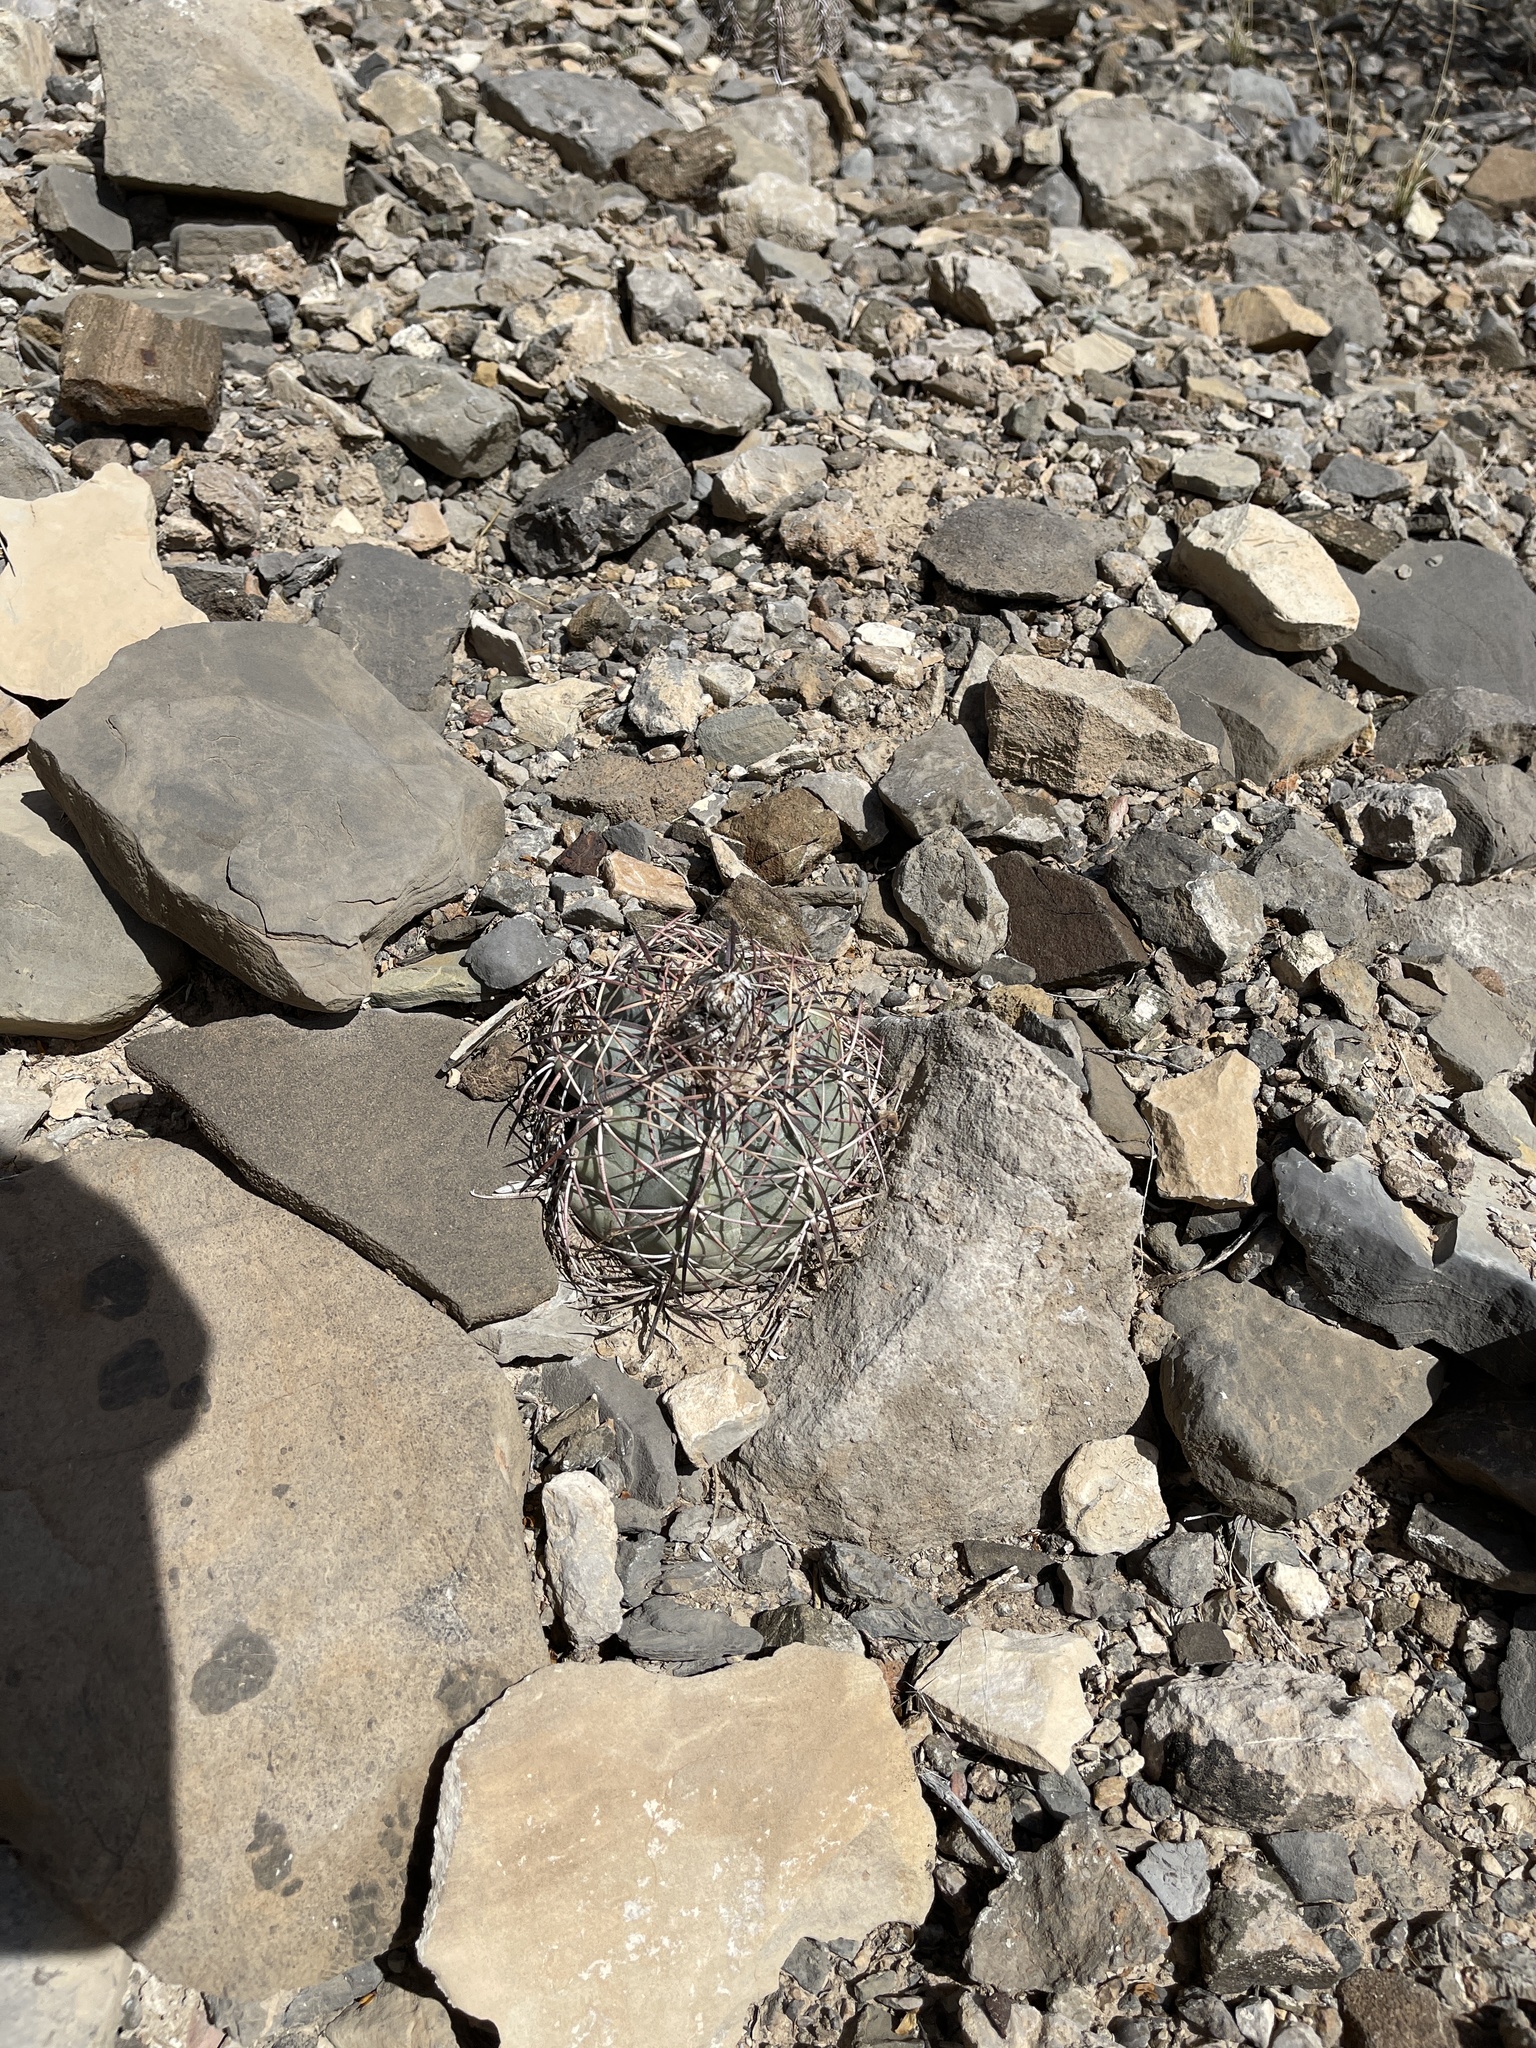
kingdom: Plantae
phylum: Tracheophyta
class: Magnoliopsida
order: Caryophyllales
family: Cactaceae
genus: Echinocactus
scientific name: Echinocactus horizonthalonius
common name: Devilshead
